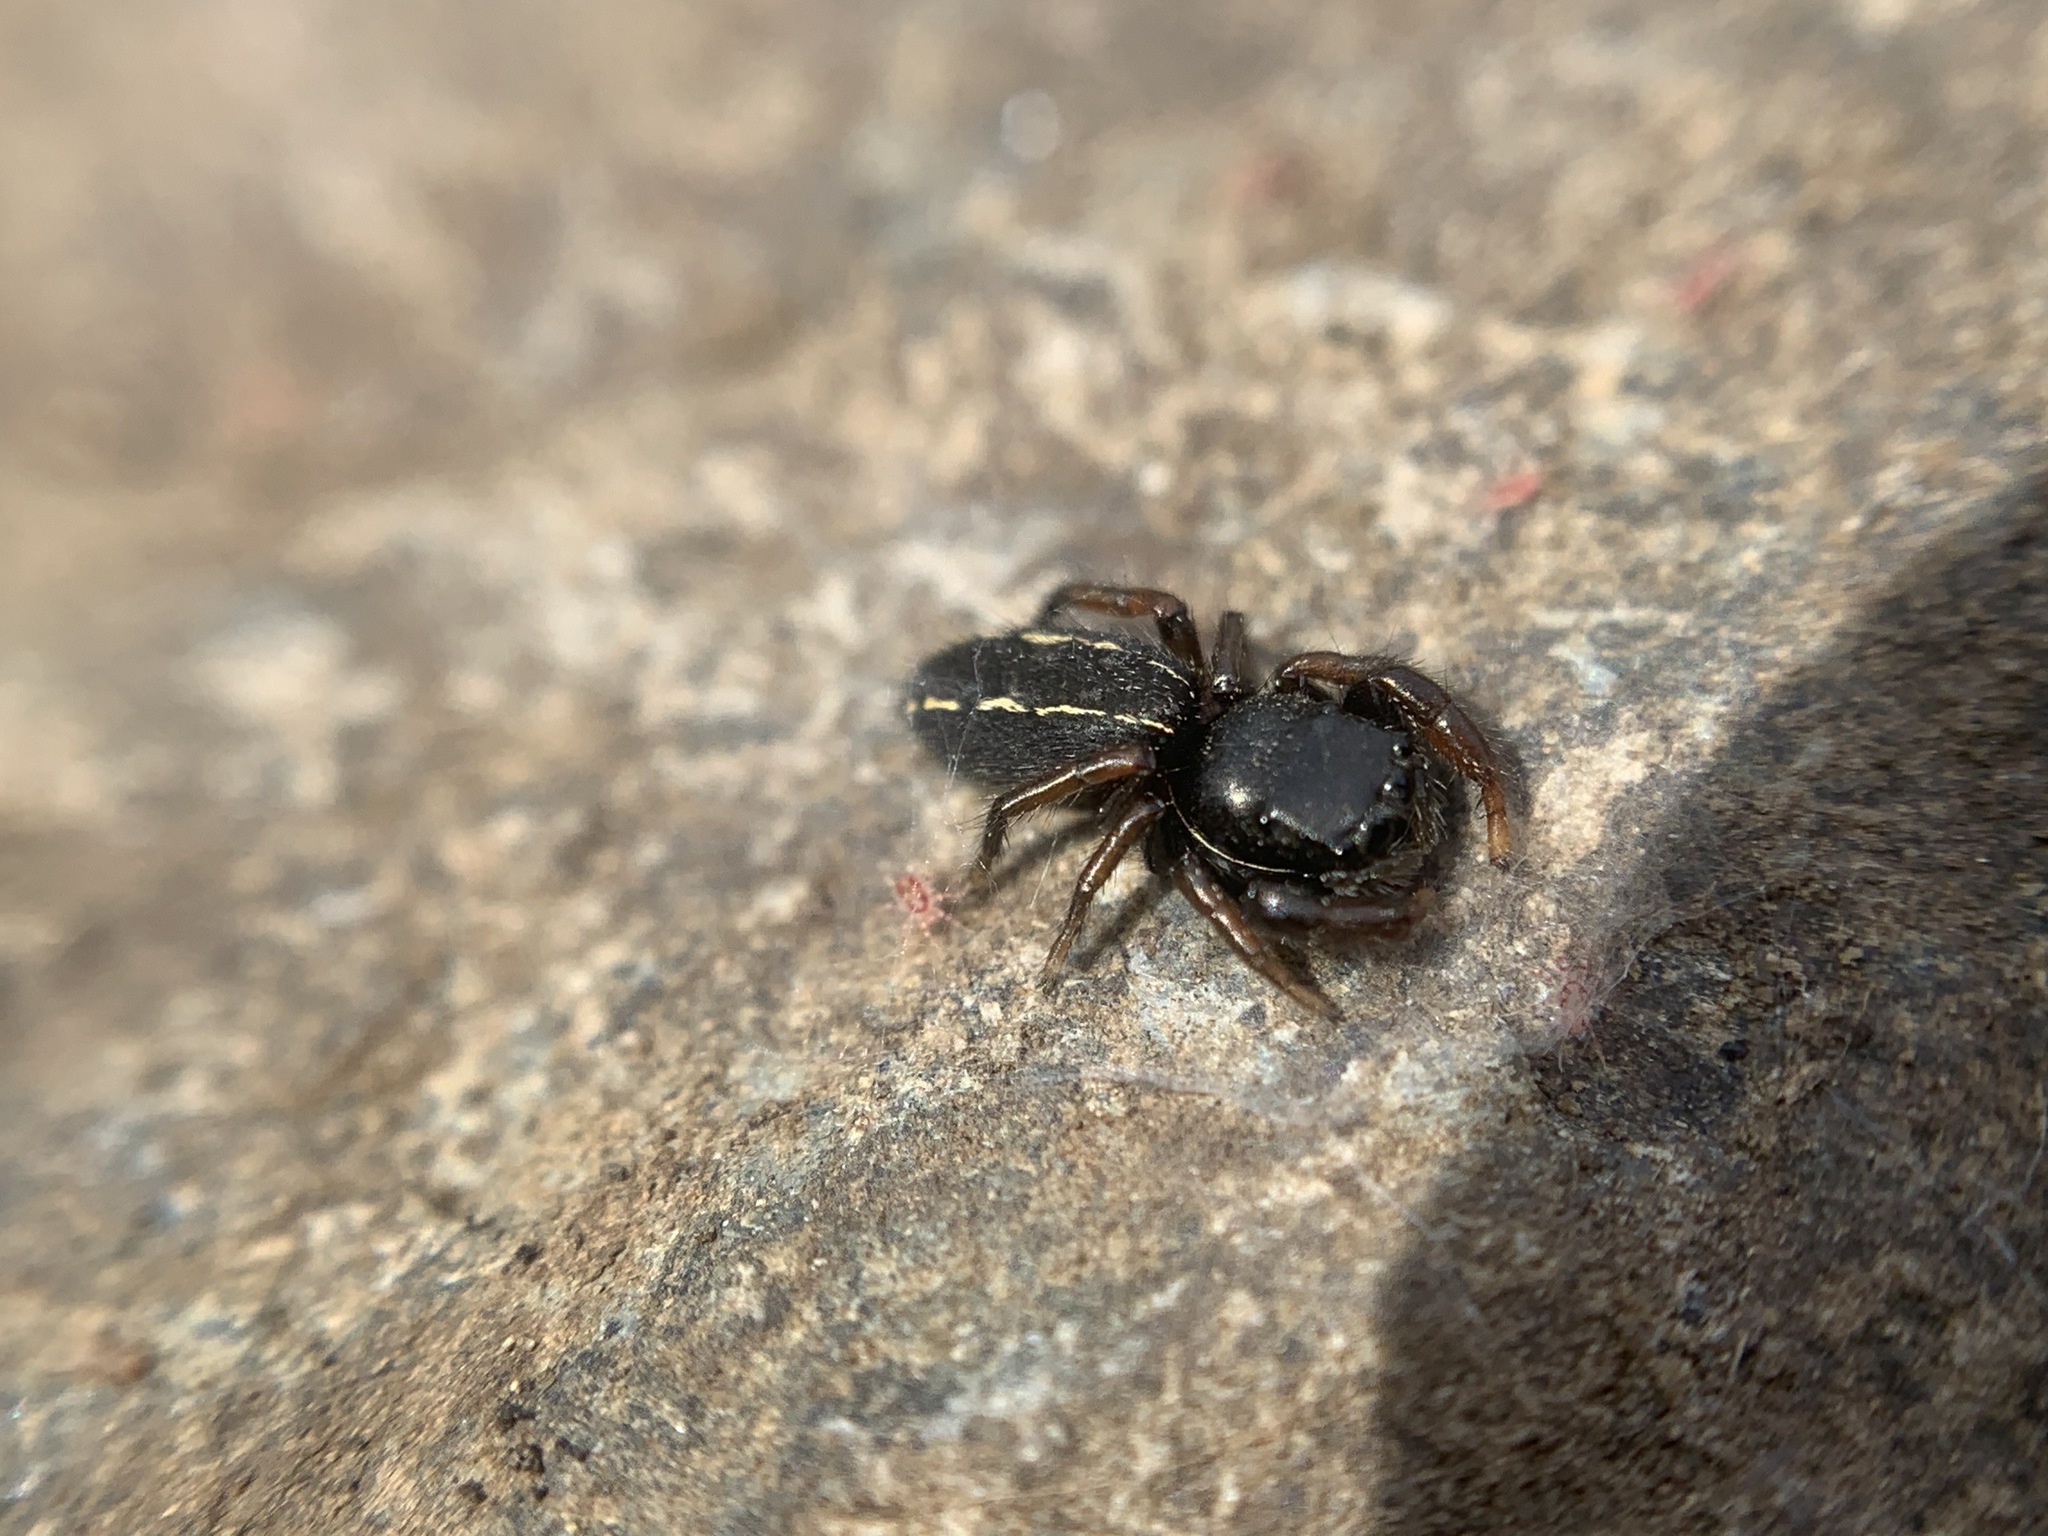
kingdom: Animalia
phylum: Arthropoda
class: Arachnida
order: Araneae
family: Salticidae
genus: Metacyrba
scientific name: Metacyrba taeniola
